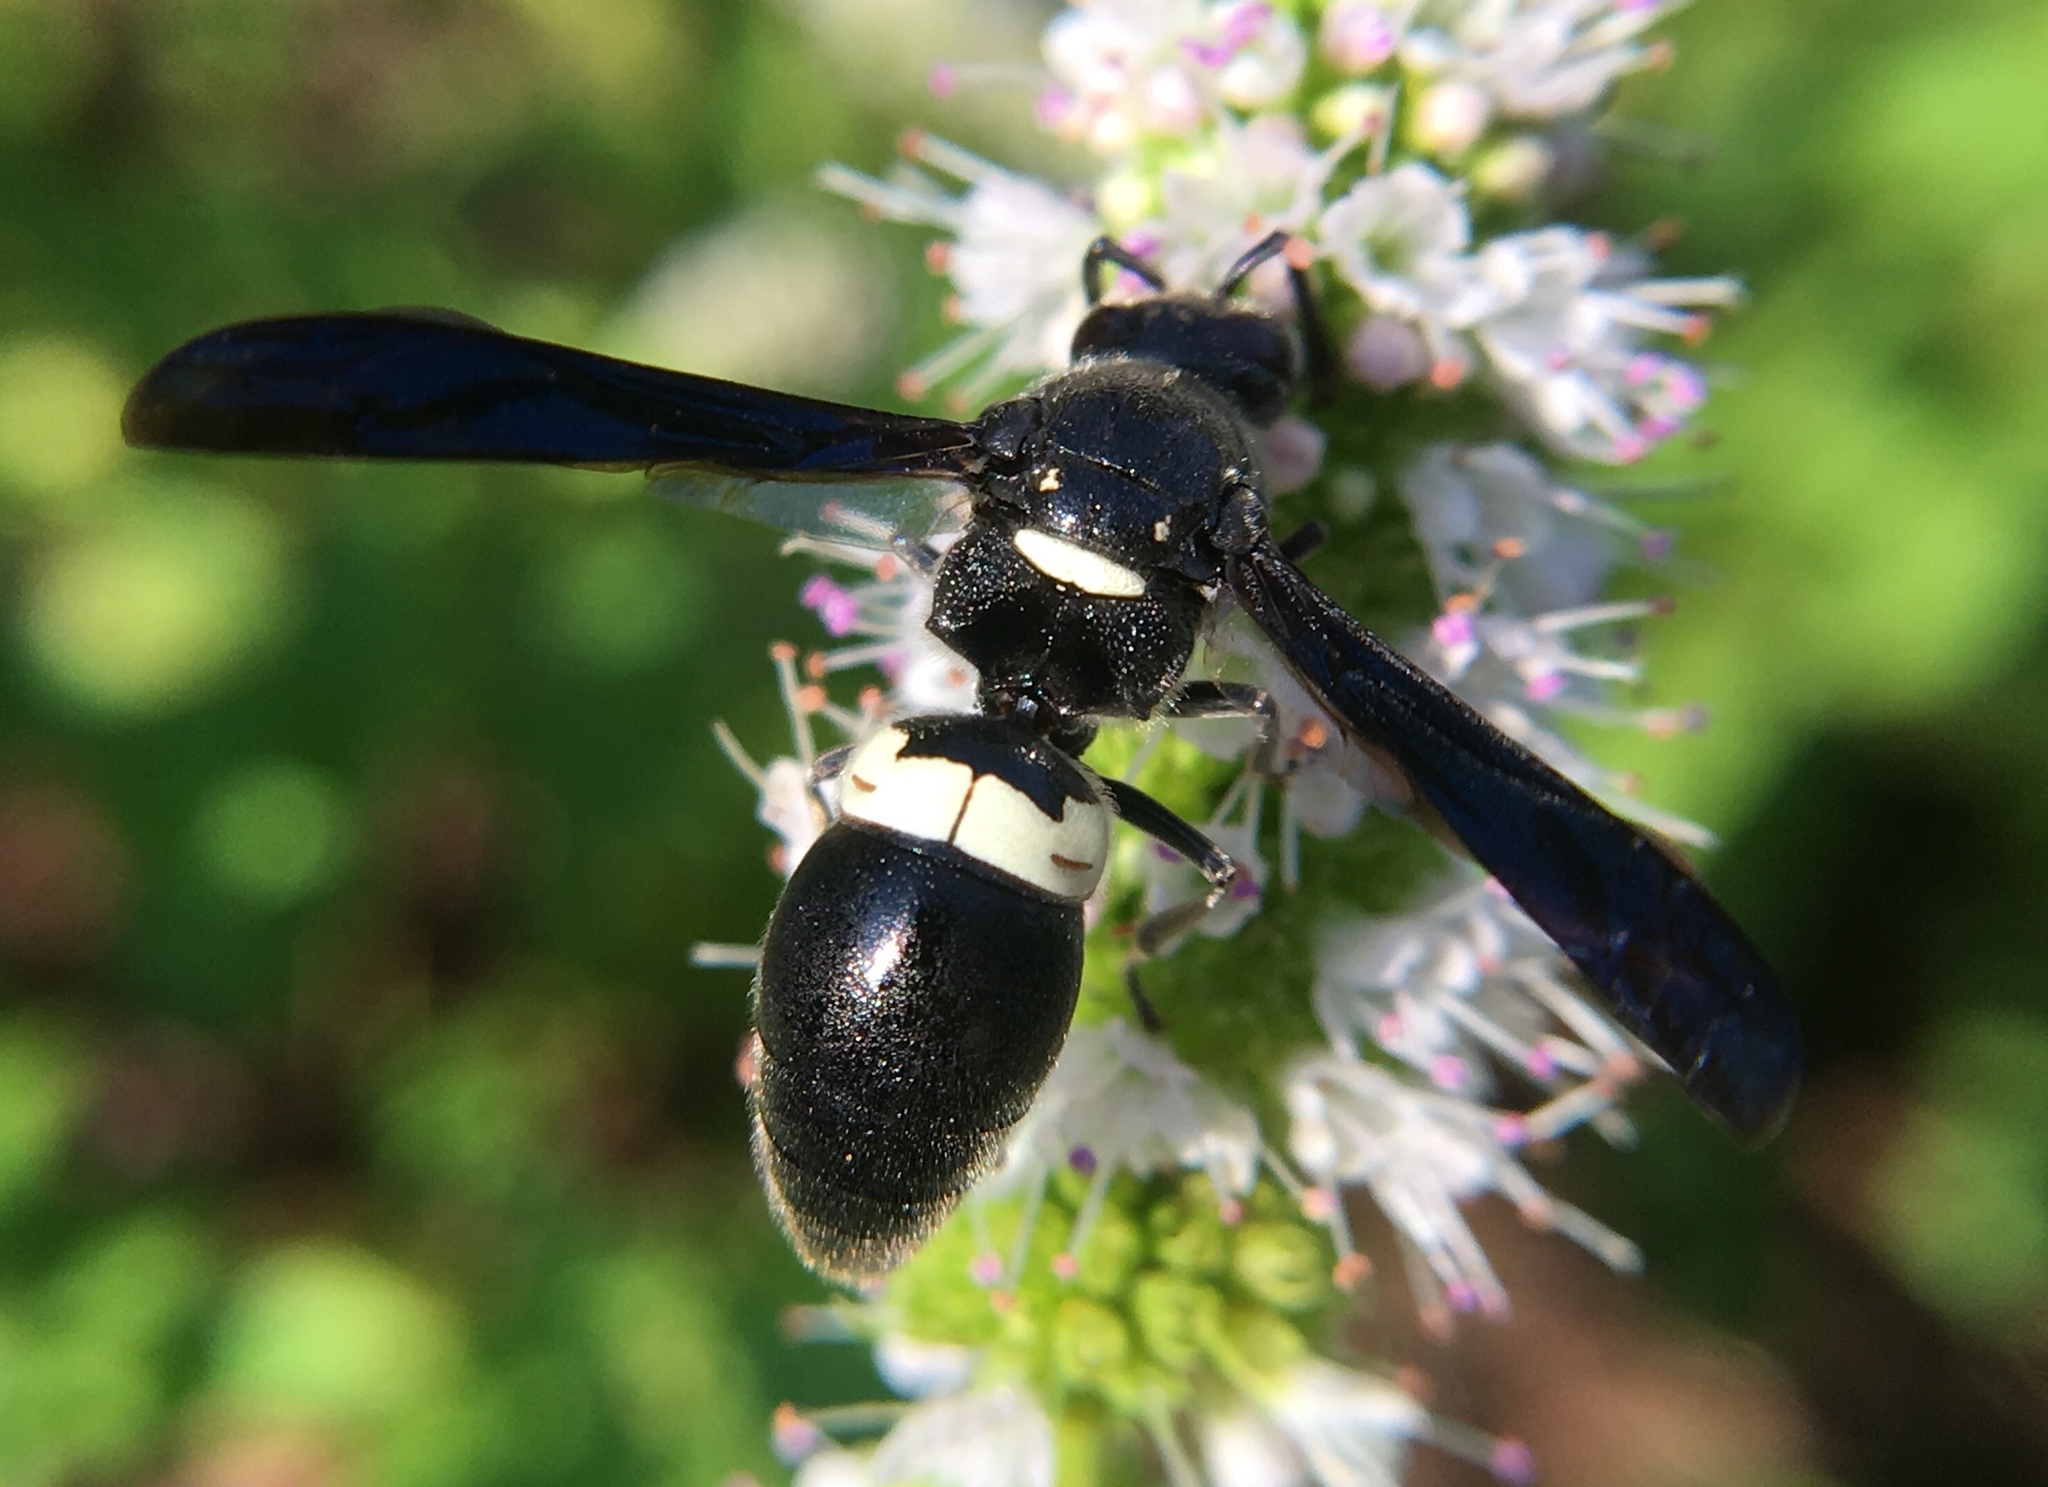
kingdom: Animalia
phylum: Arthropoda
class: Insecta
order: Hymenoptera
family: Eumenidae
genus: Monobia
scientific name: Monobia quadridens
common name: Four-toothed mason wasp
